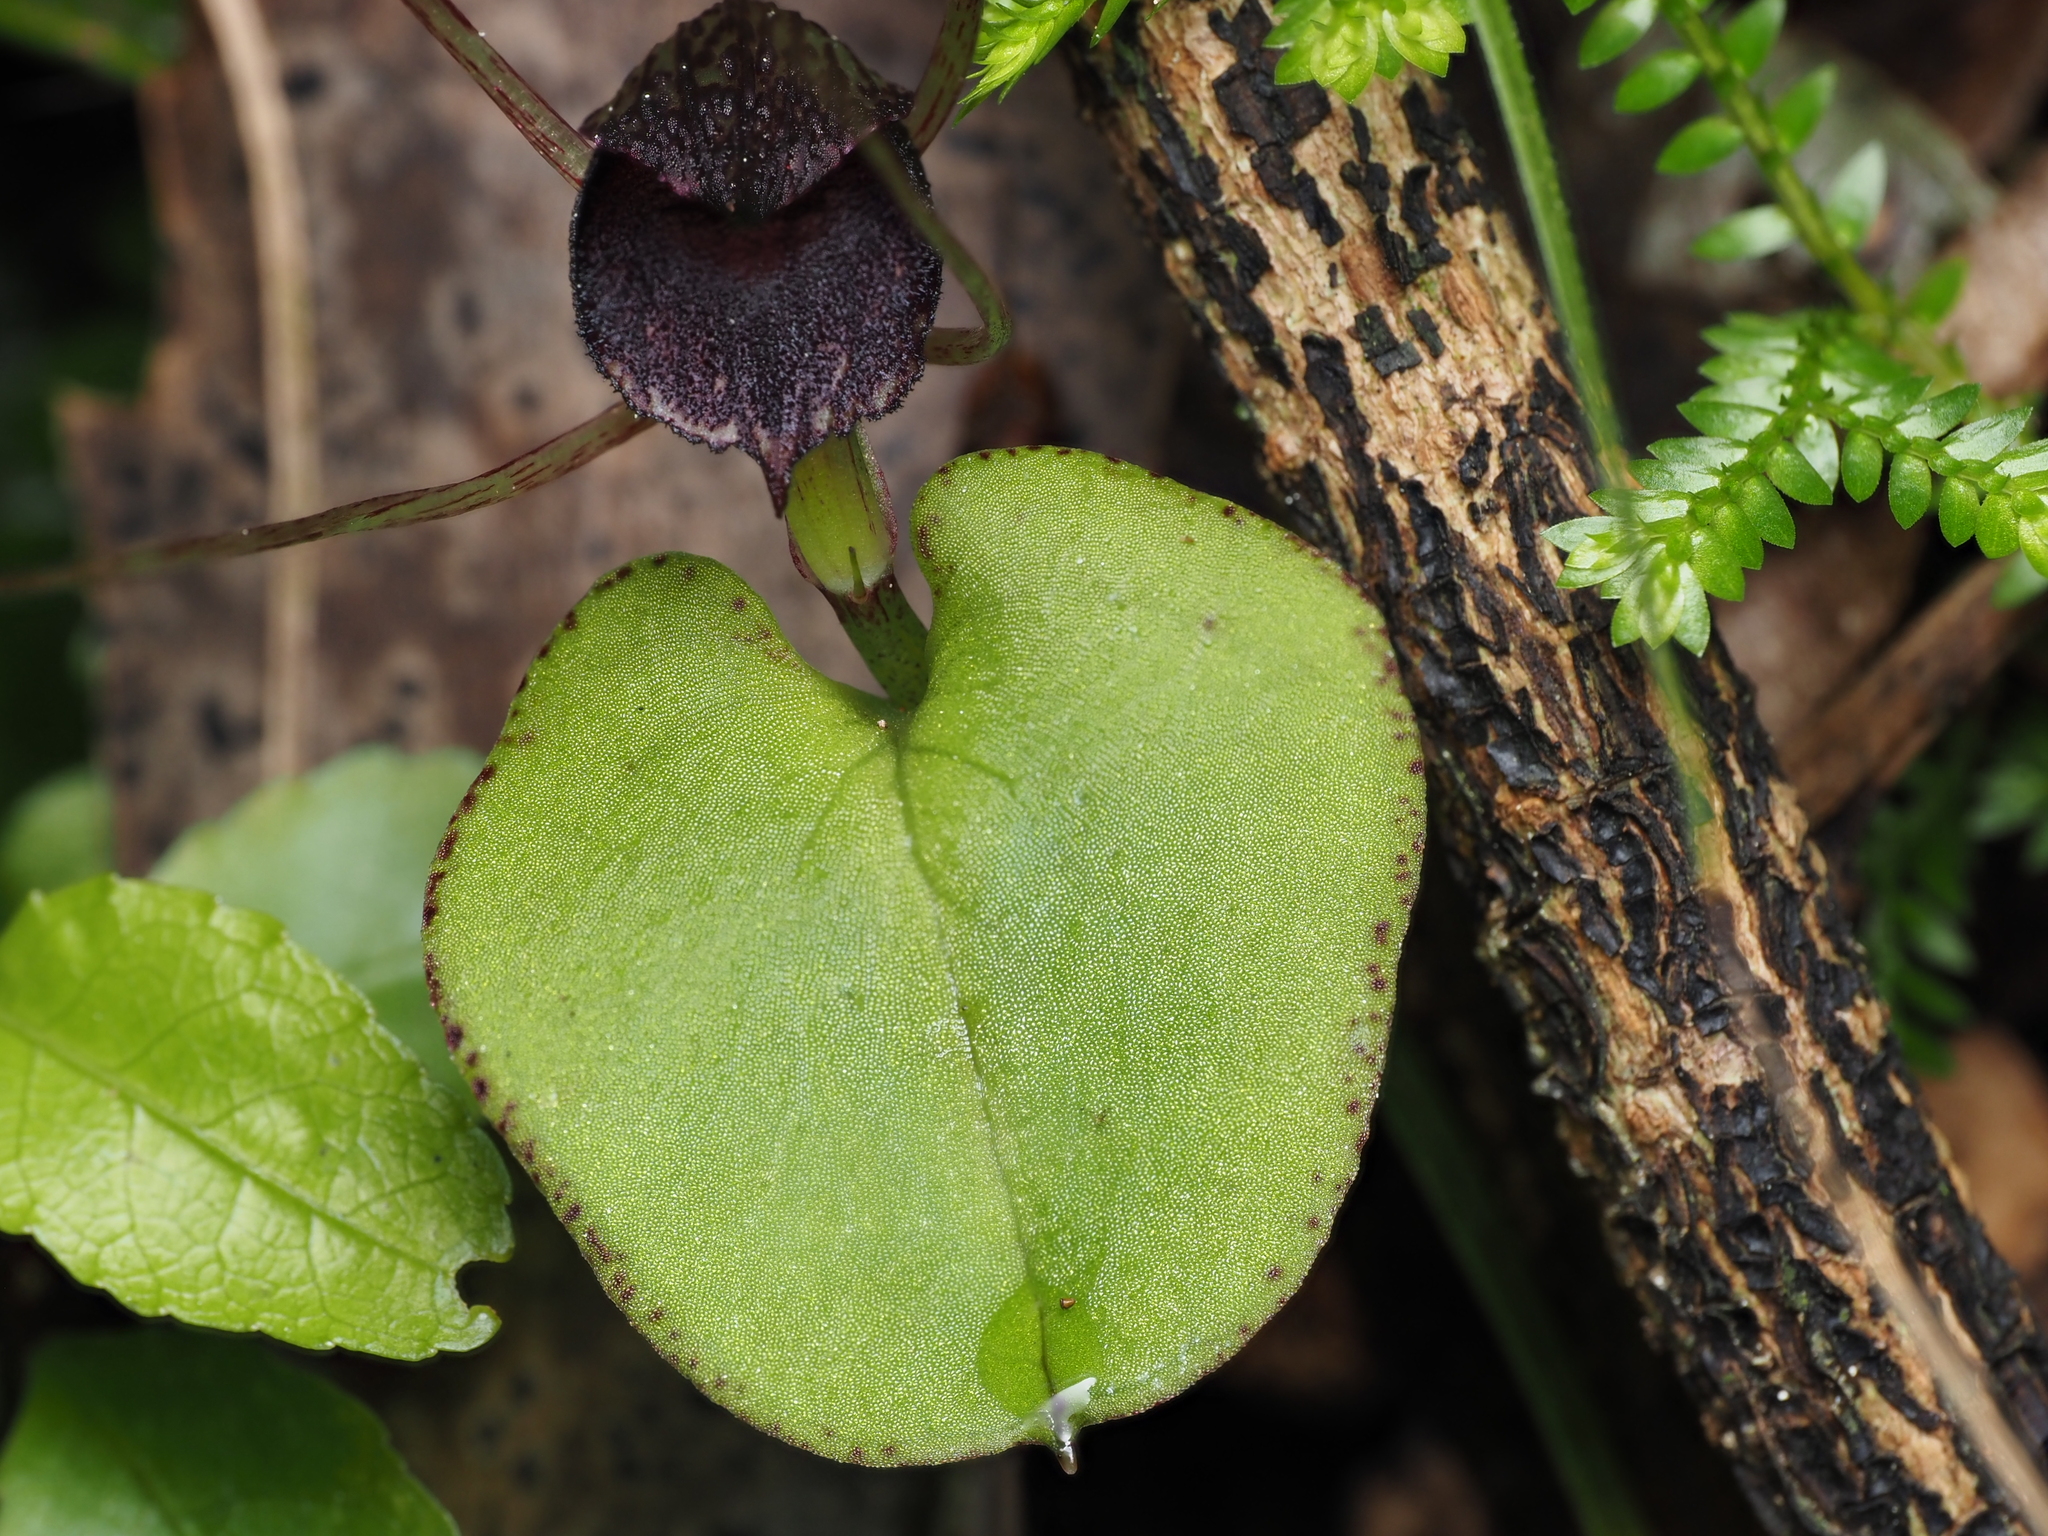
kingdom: Plantae
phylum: Tracheophyta
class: Liliopsida
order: Asparagales
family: Orchidaceae
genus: Corybas
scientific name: Corybas iridescens
